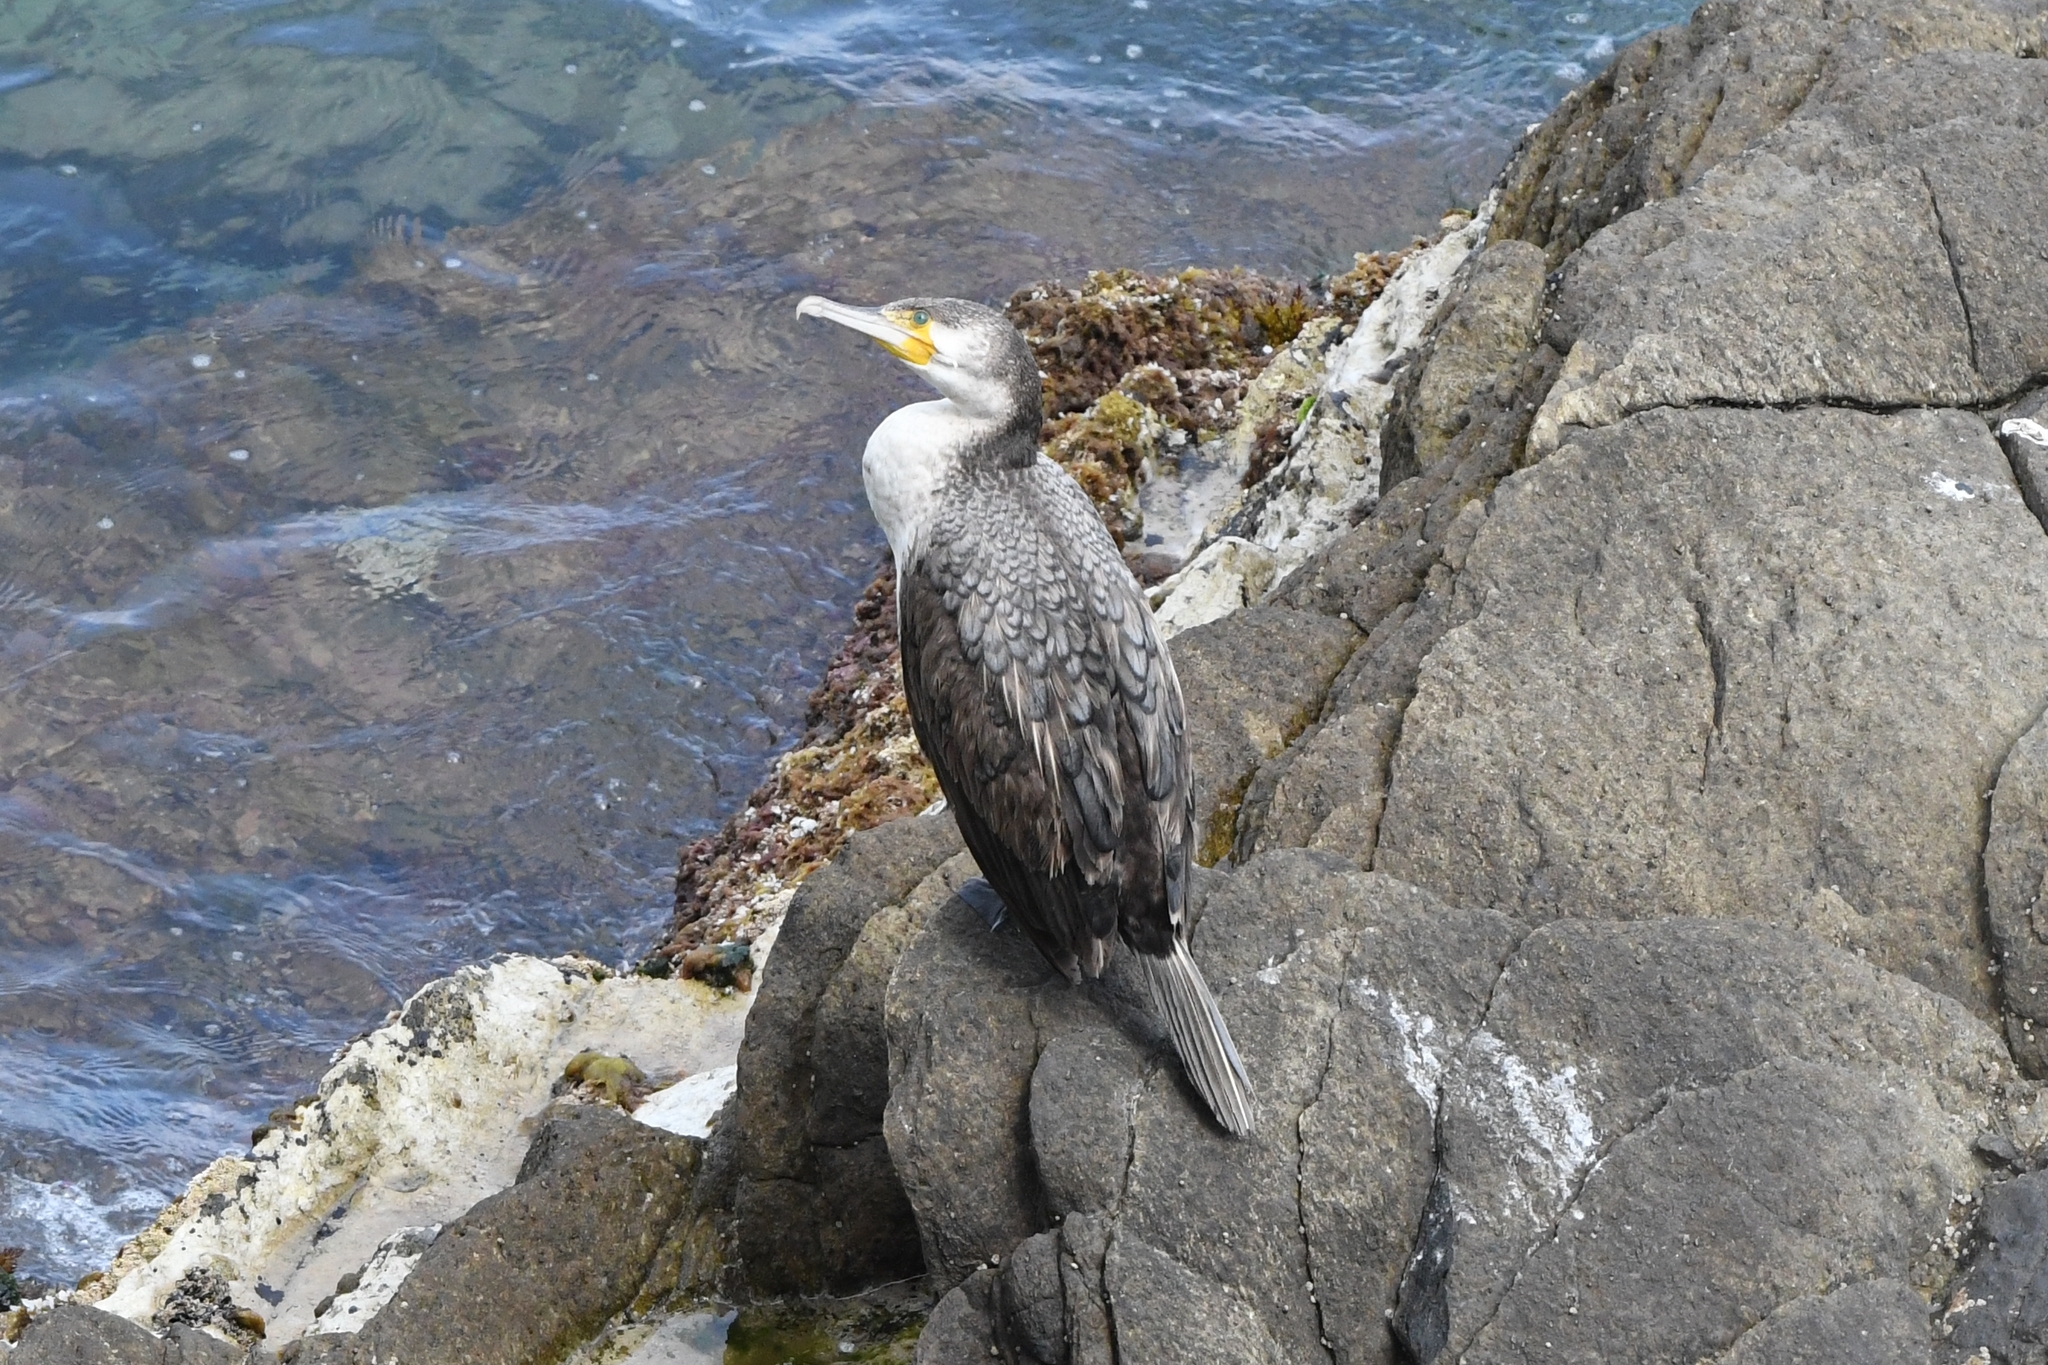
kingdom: Animalia
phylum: Chordata
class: Aves
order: Suliformes
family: Phalacrocoracidae
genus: Phalacrocorax
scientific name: Phalacrocorax carbo
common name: Great cormorant
